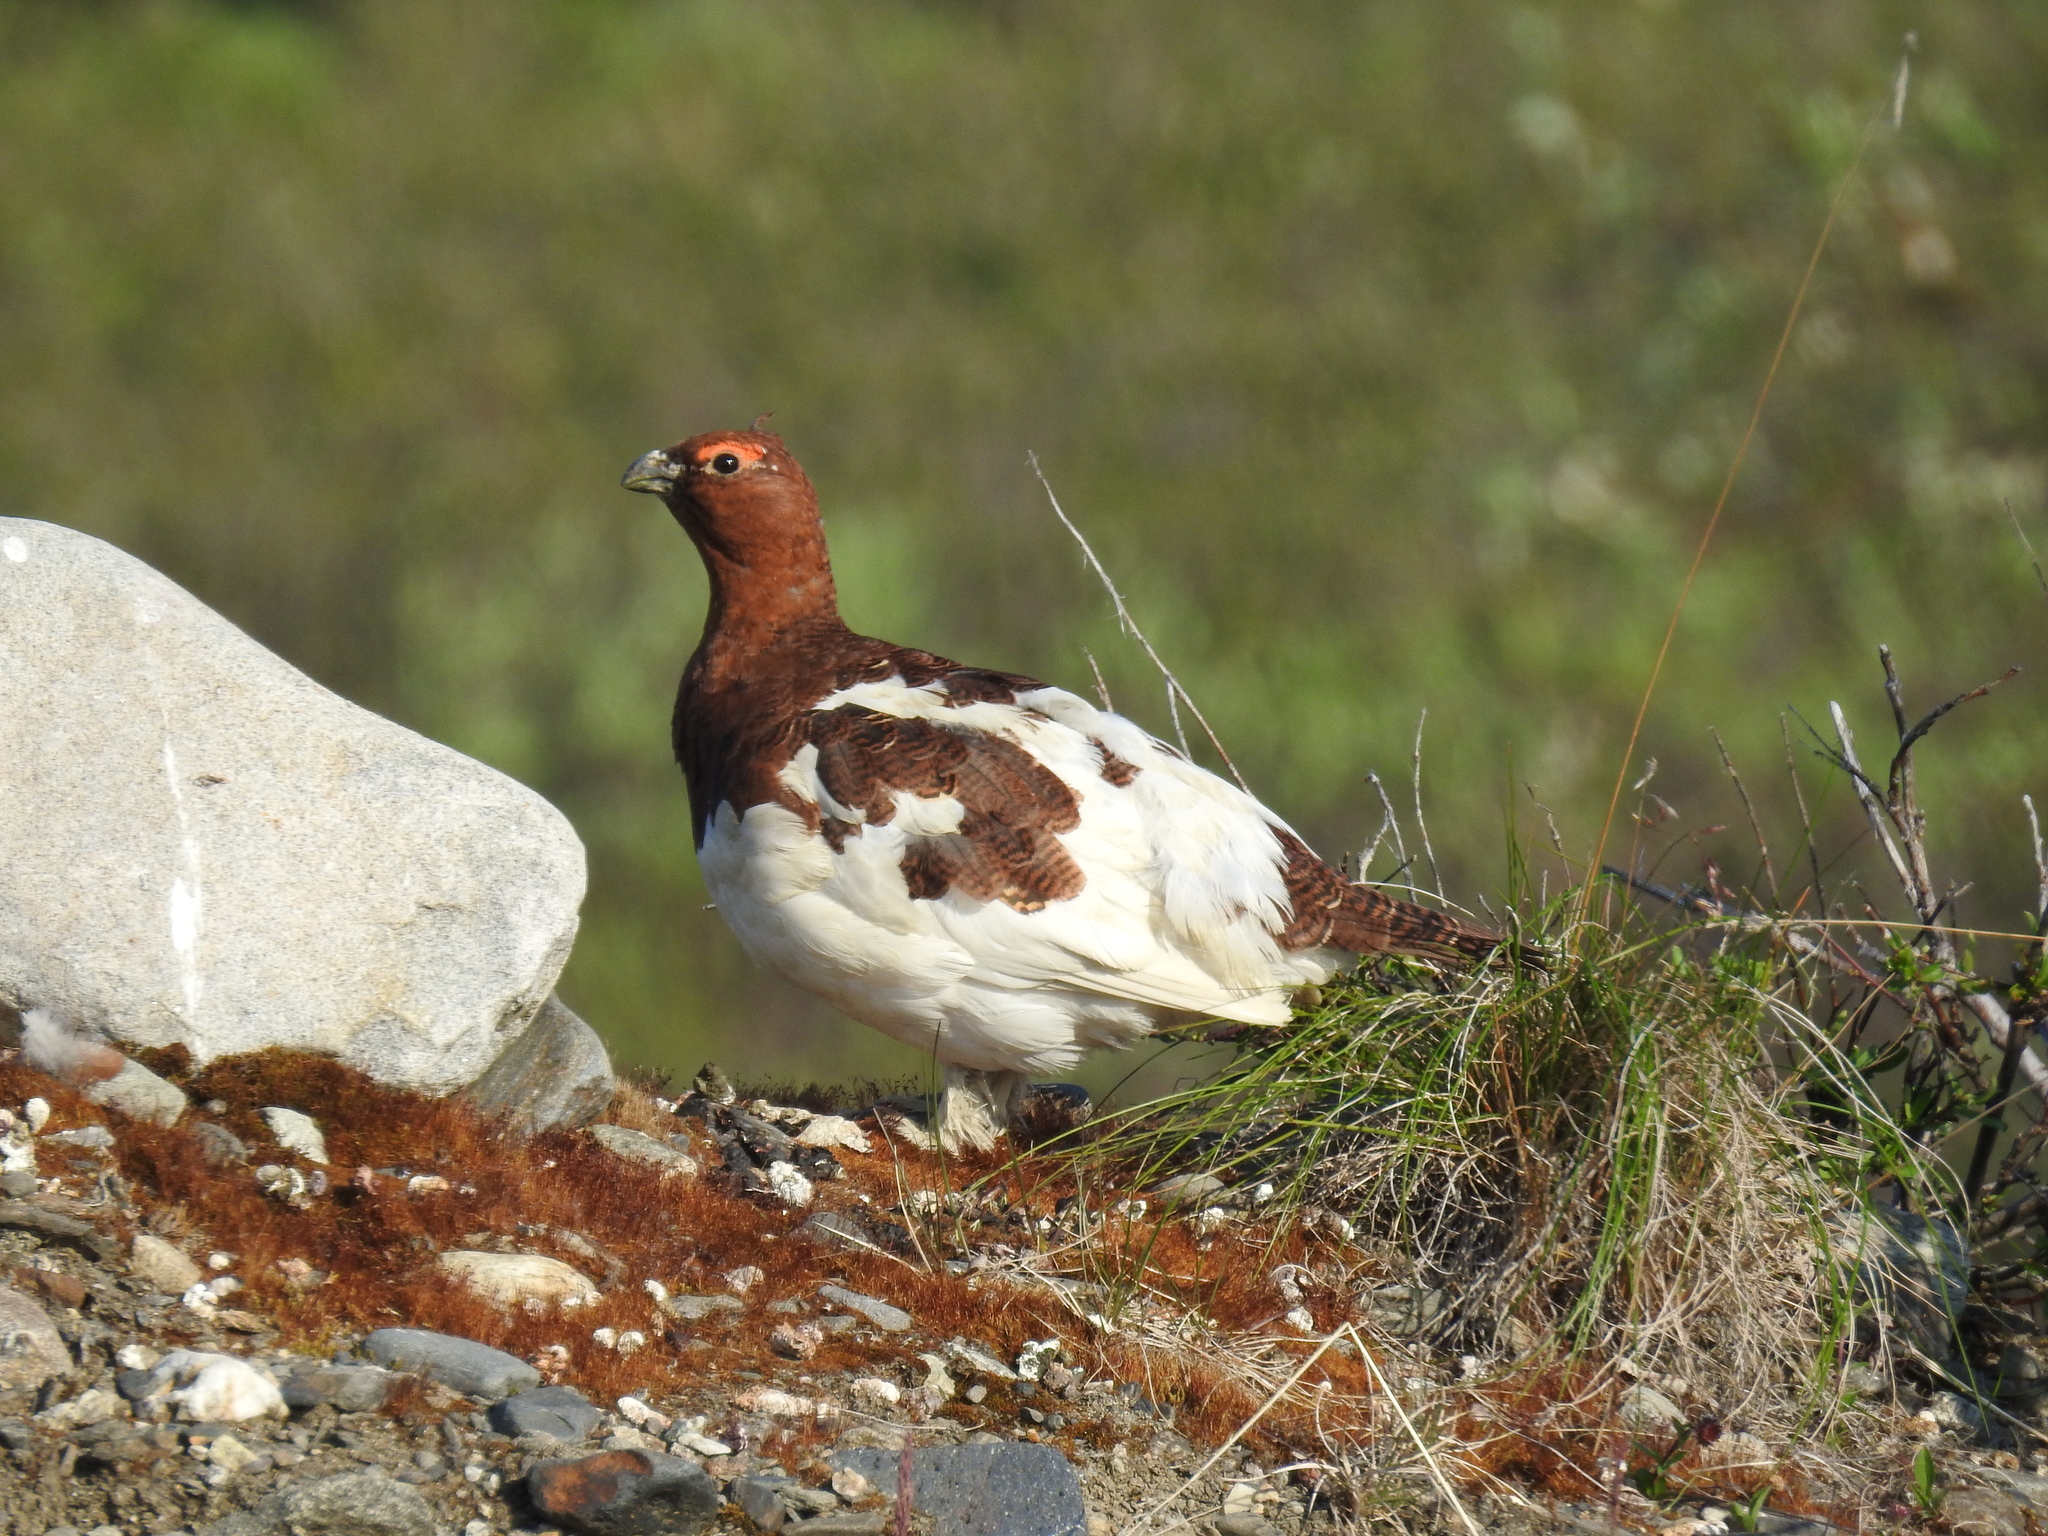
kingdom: Animalia
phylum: Chordata
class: Aves
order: Galliformes
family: Phasianidae
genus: Lagopus
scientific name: Lagopus lagopus
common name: Willow ptarmigan
